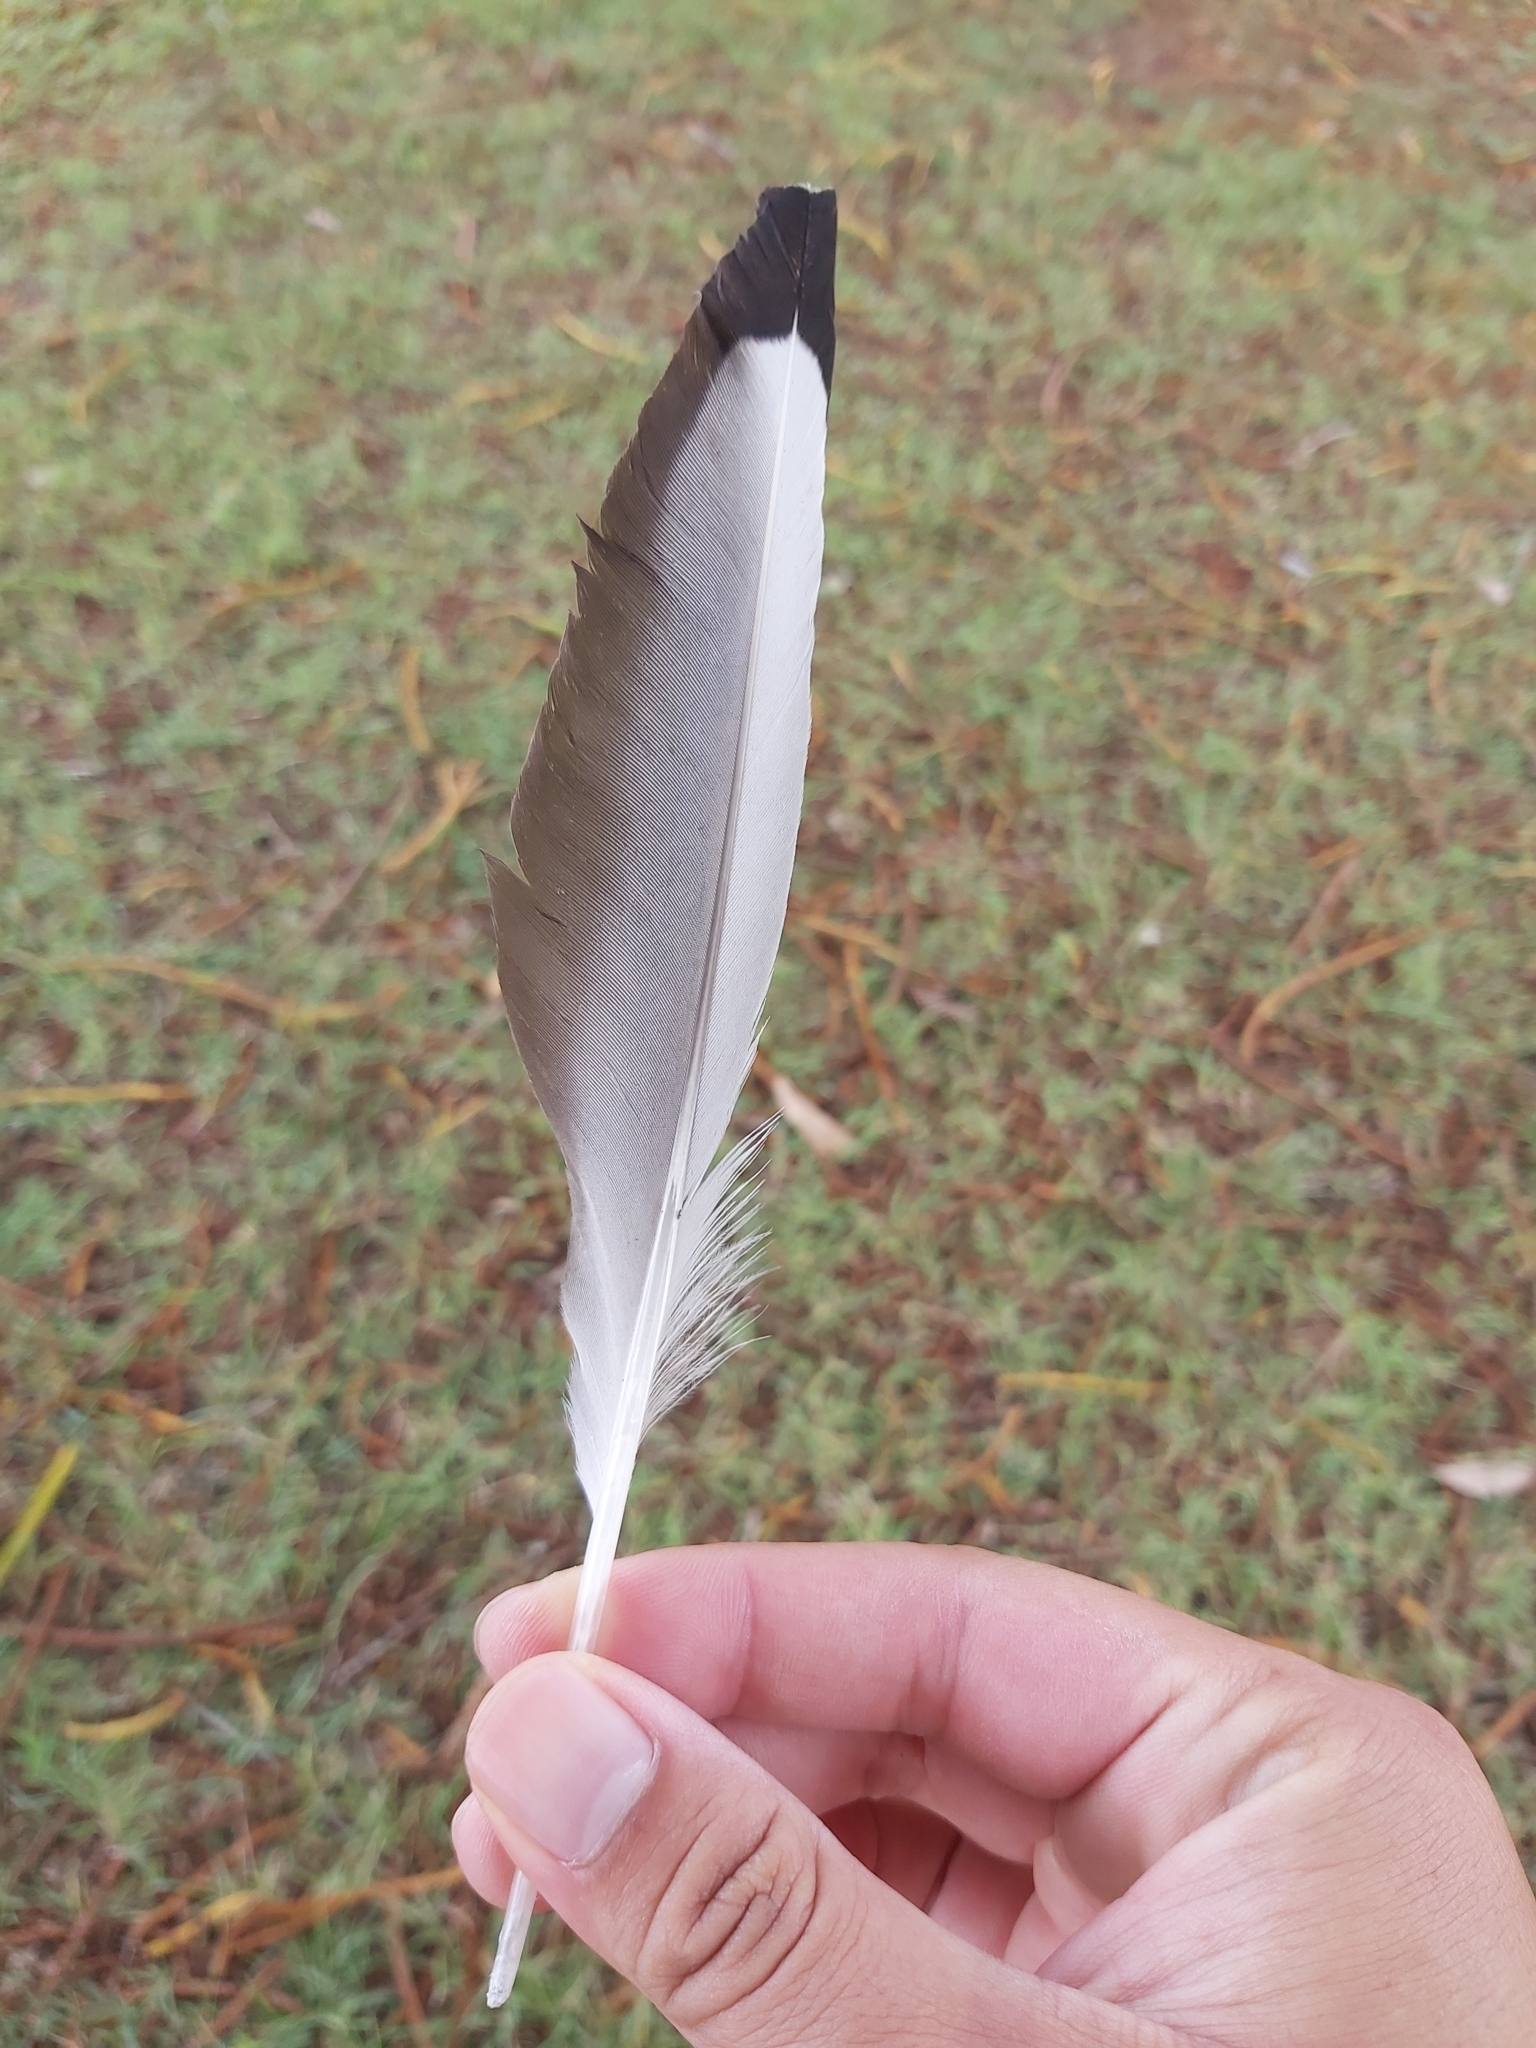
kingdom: Animalia
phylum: Chordata
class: Aves
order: Charadriiformes
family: Laridae
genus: Chroicocephalus
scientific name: Chroicocephalus novaehollandiae
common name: Silver gull
